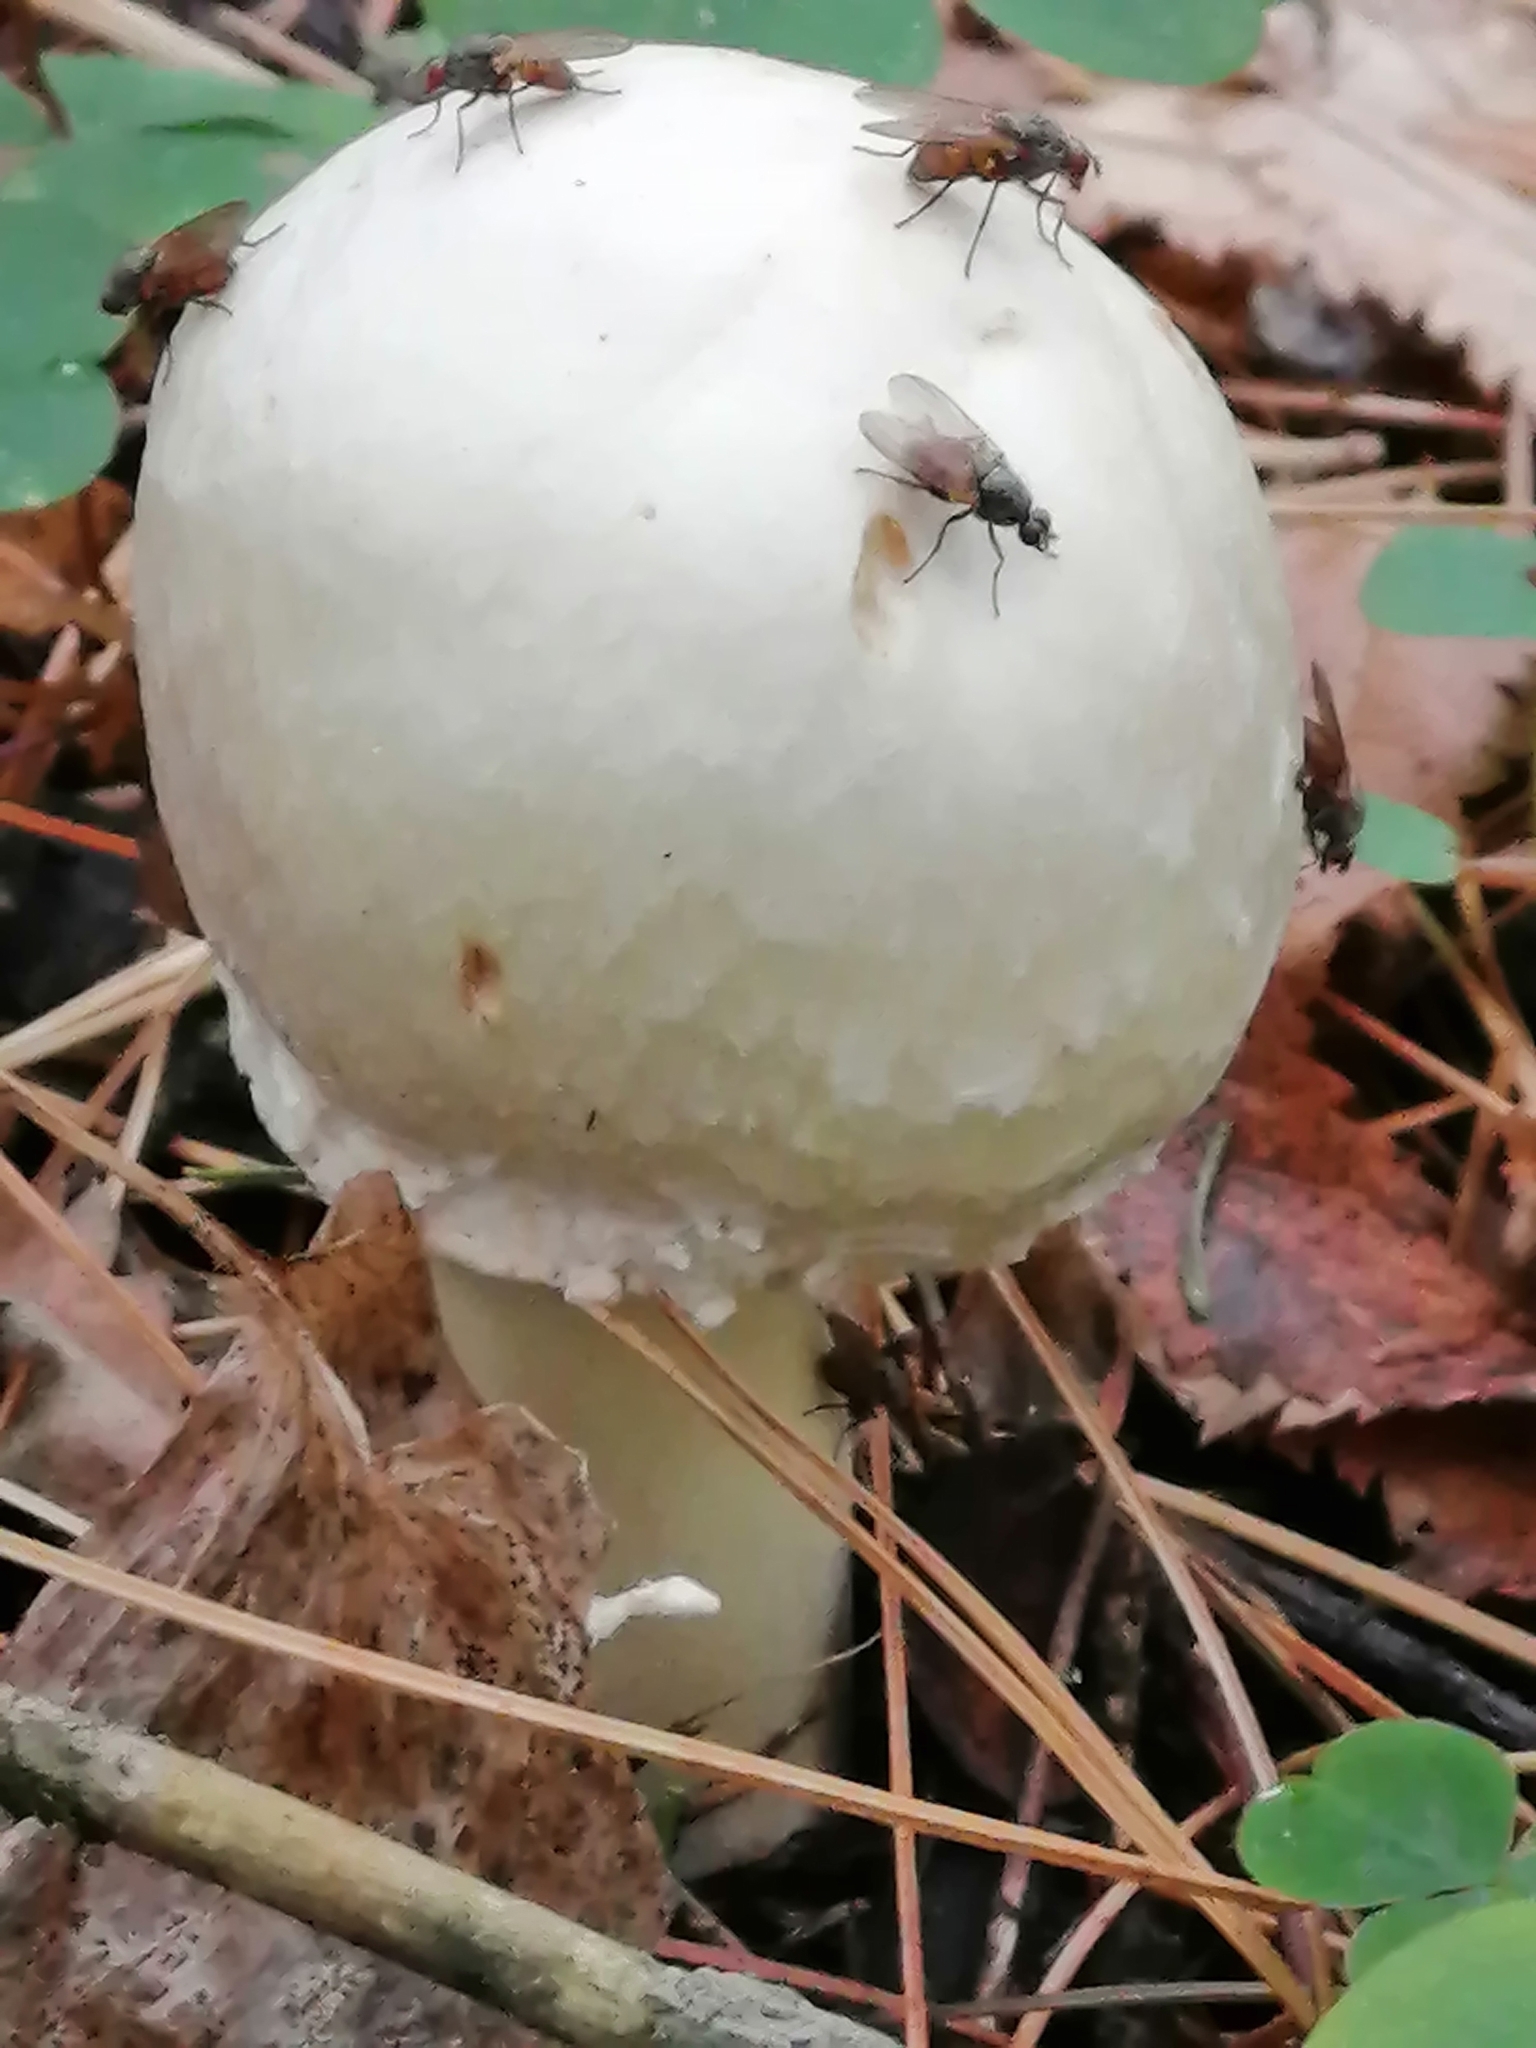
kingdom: Fungi
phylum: Basidiomycota
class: Agaricomycetes
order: Agaricales
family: Agaricaceae
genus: Agaricus
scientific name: Agaricus sylvicola
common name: Wood mushroom
